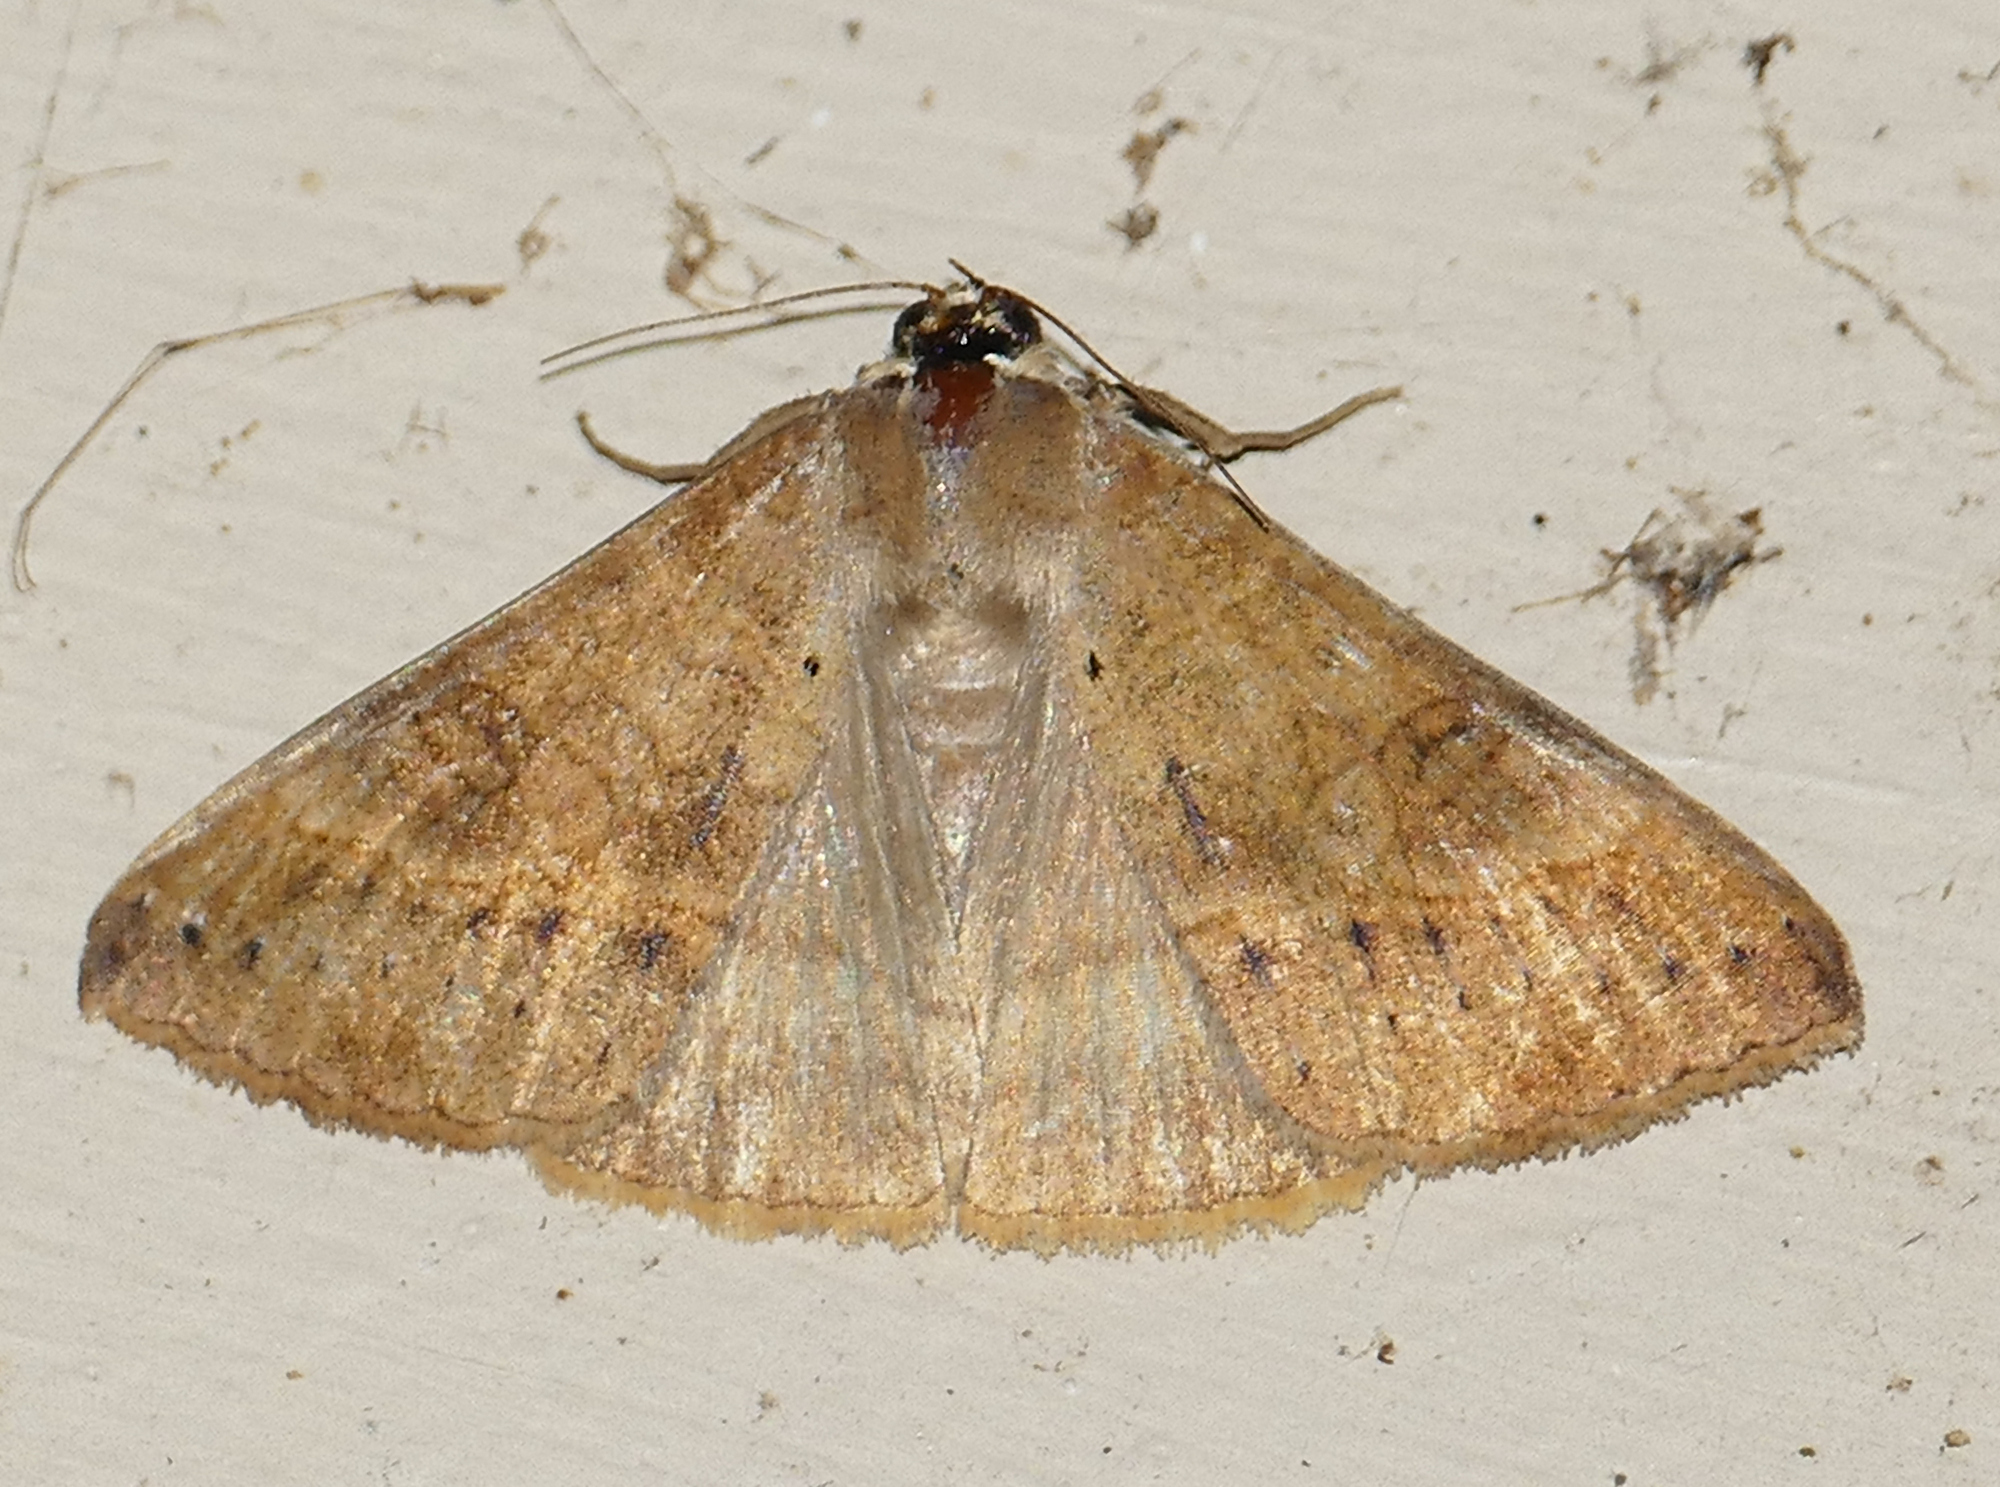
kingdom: Animalia
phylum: Arthropoda
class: Insecta
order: Lepidoptera
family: Erebidae
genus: Mocis
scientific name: Mocis latipes
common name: Striped grass looper
